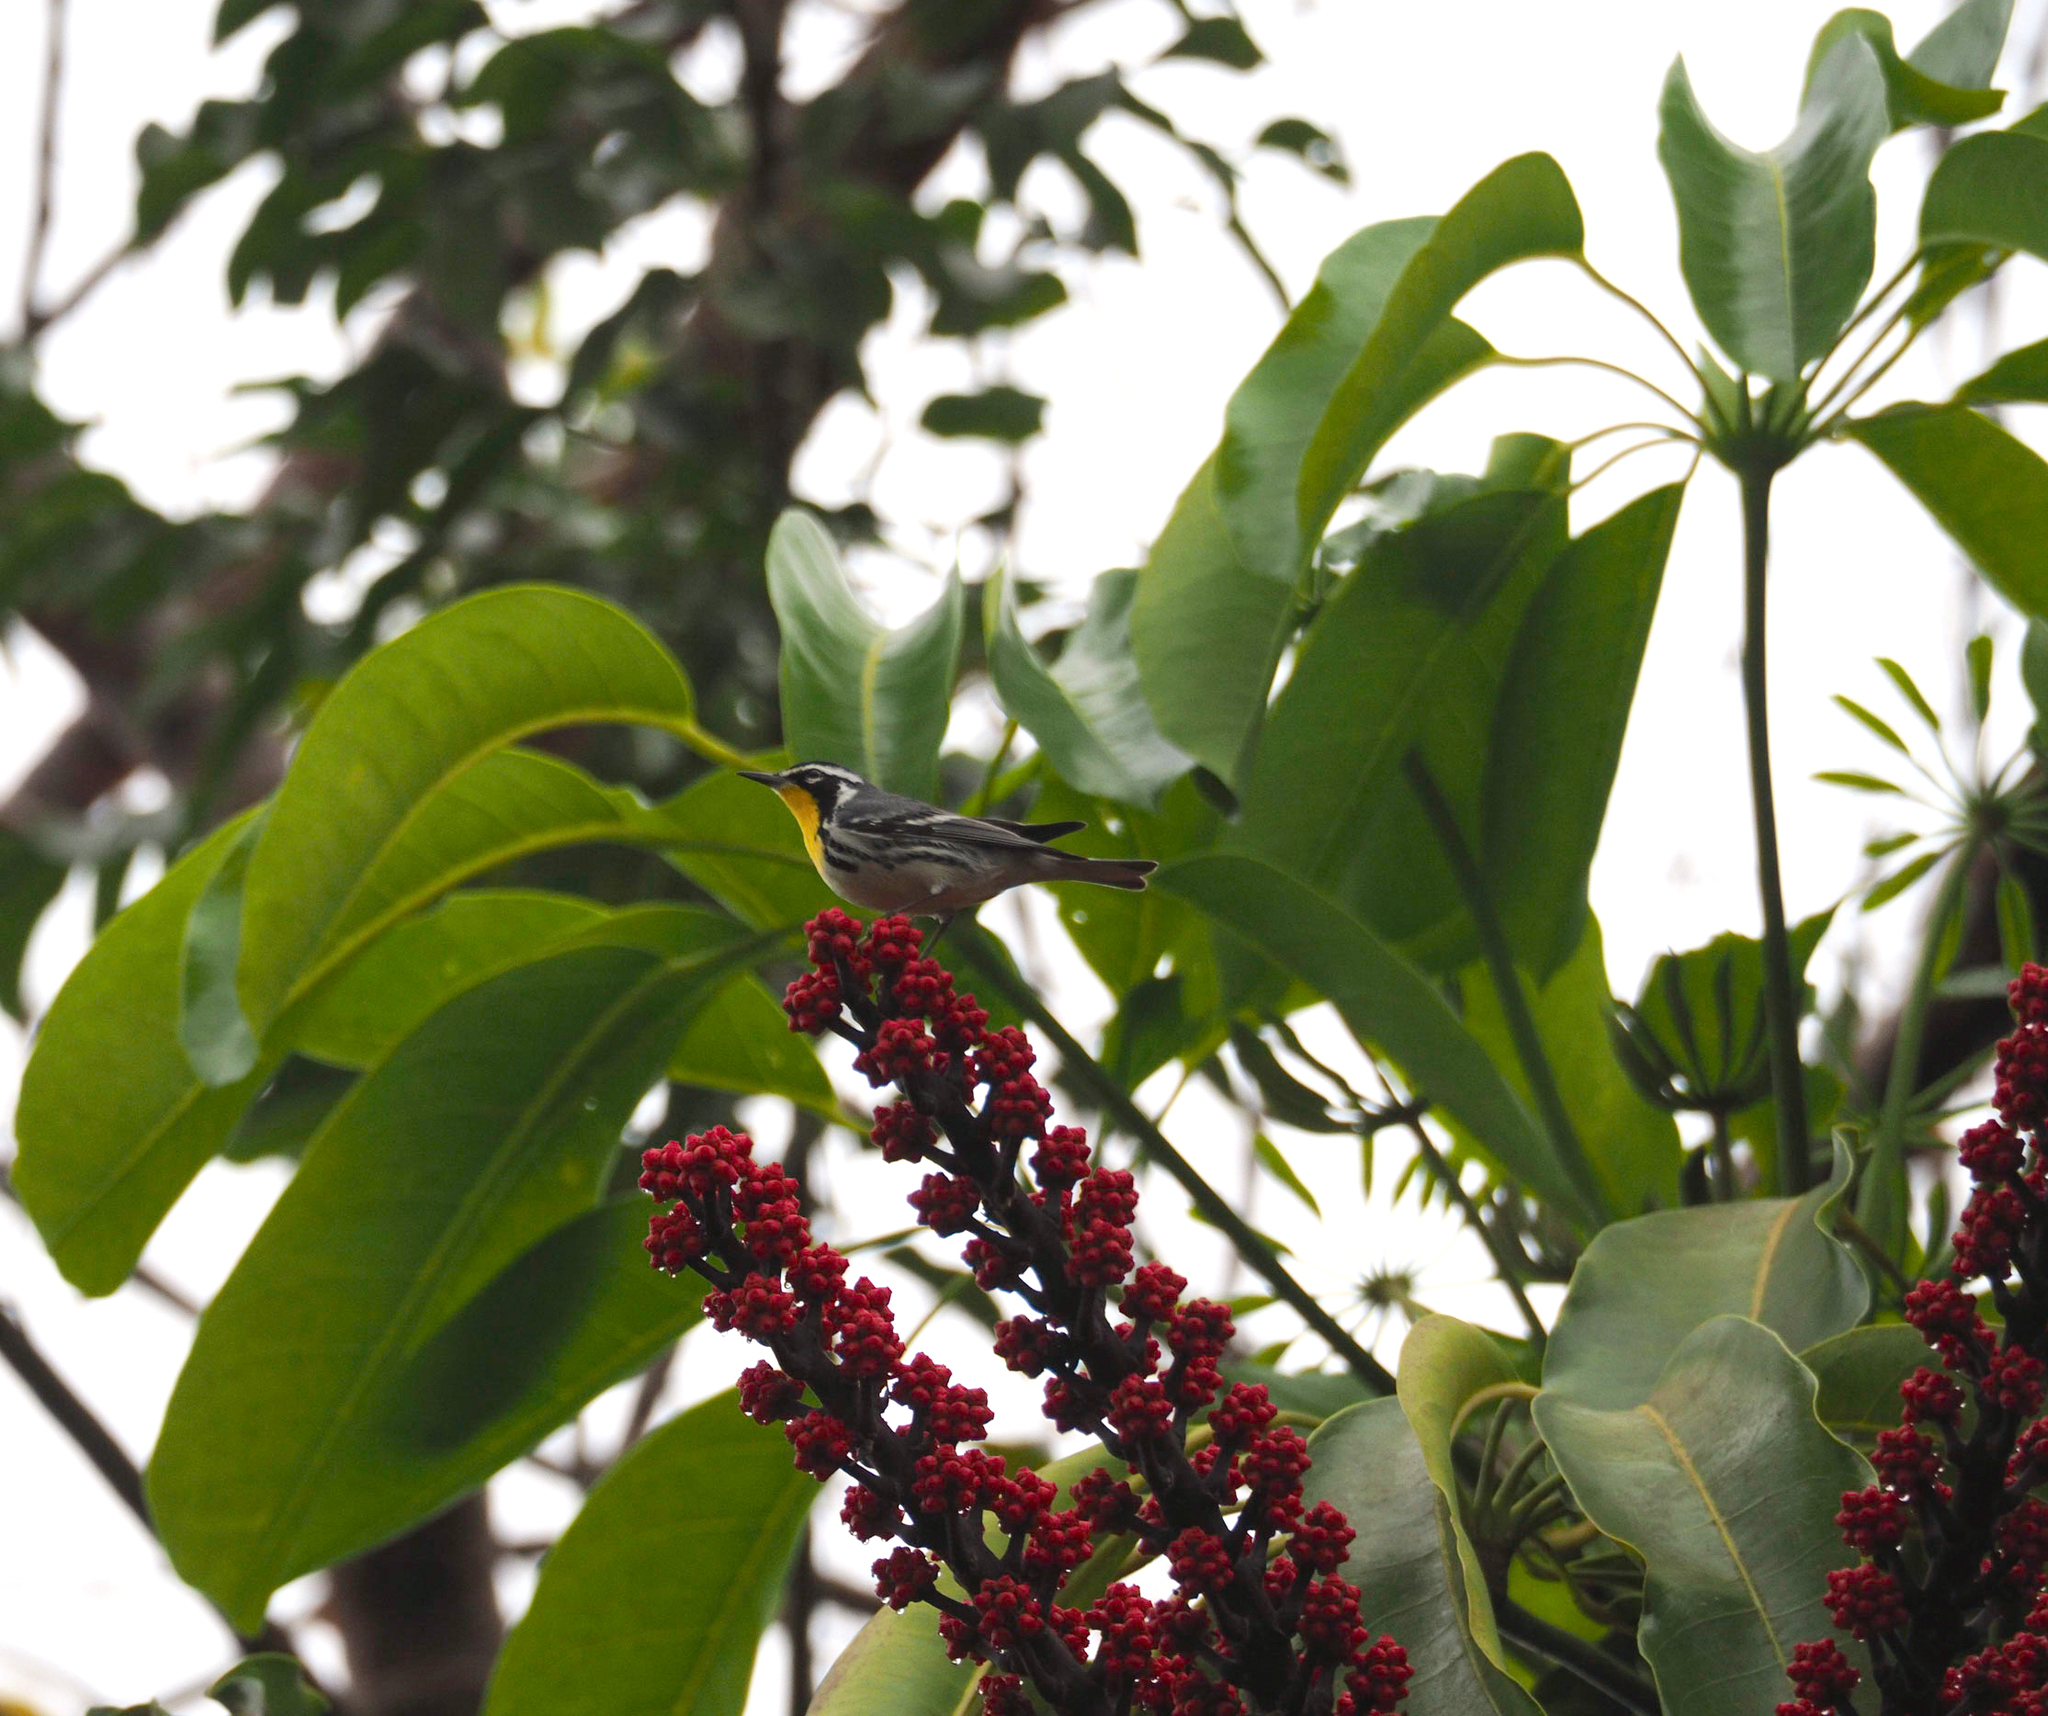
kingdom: Animalia
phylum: Chordata
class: Aves
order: Passeriformes
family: Parulidae
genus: Setophaga
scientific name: Setophaga dominica
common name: Yellow-throated warbler
